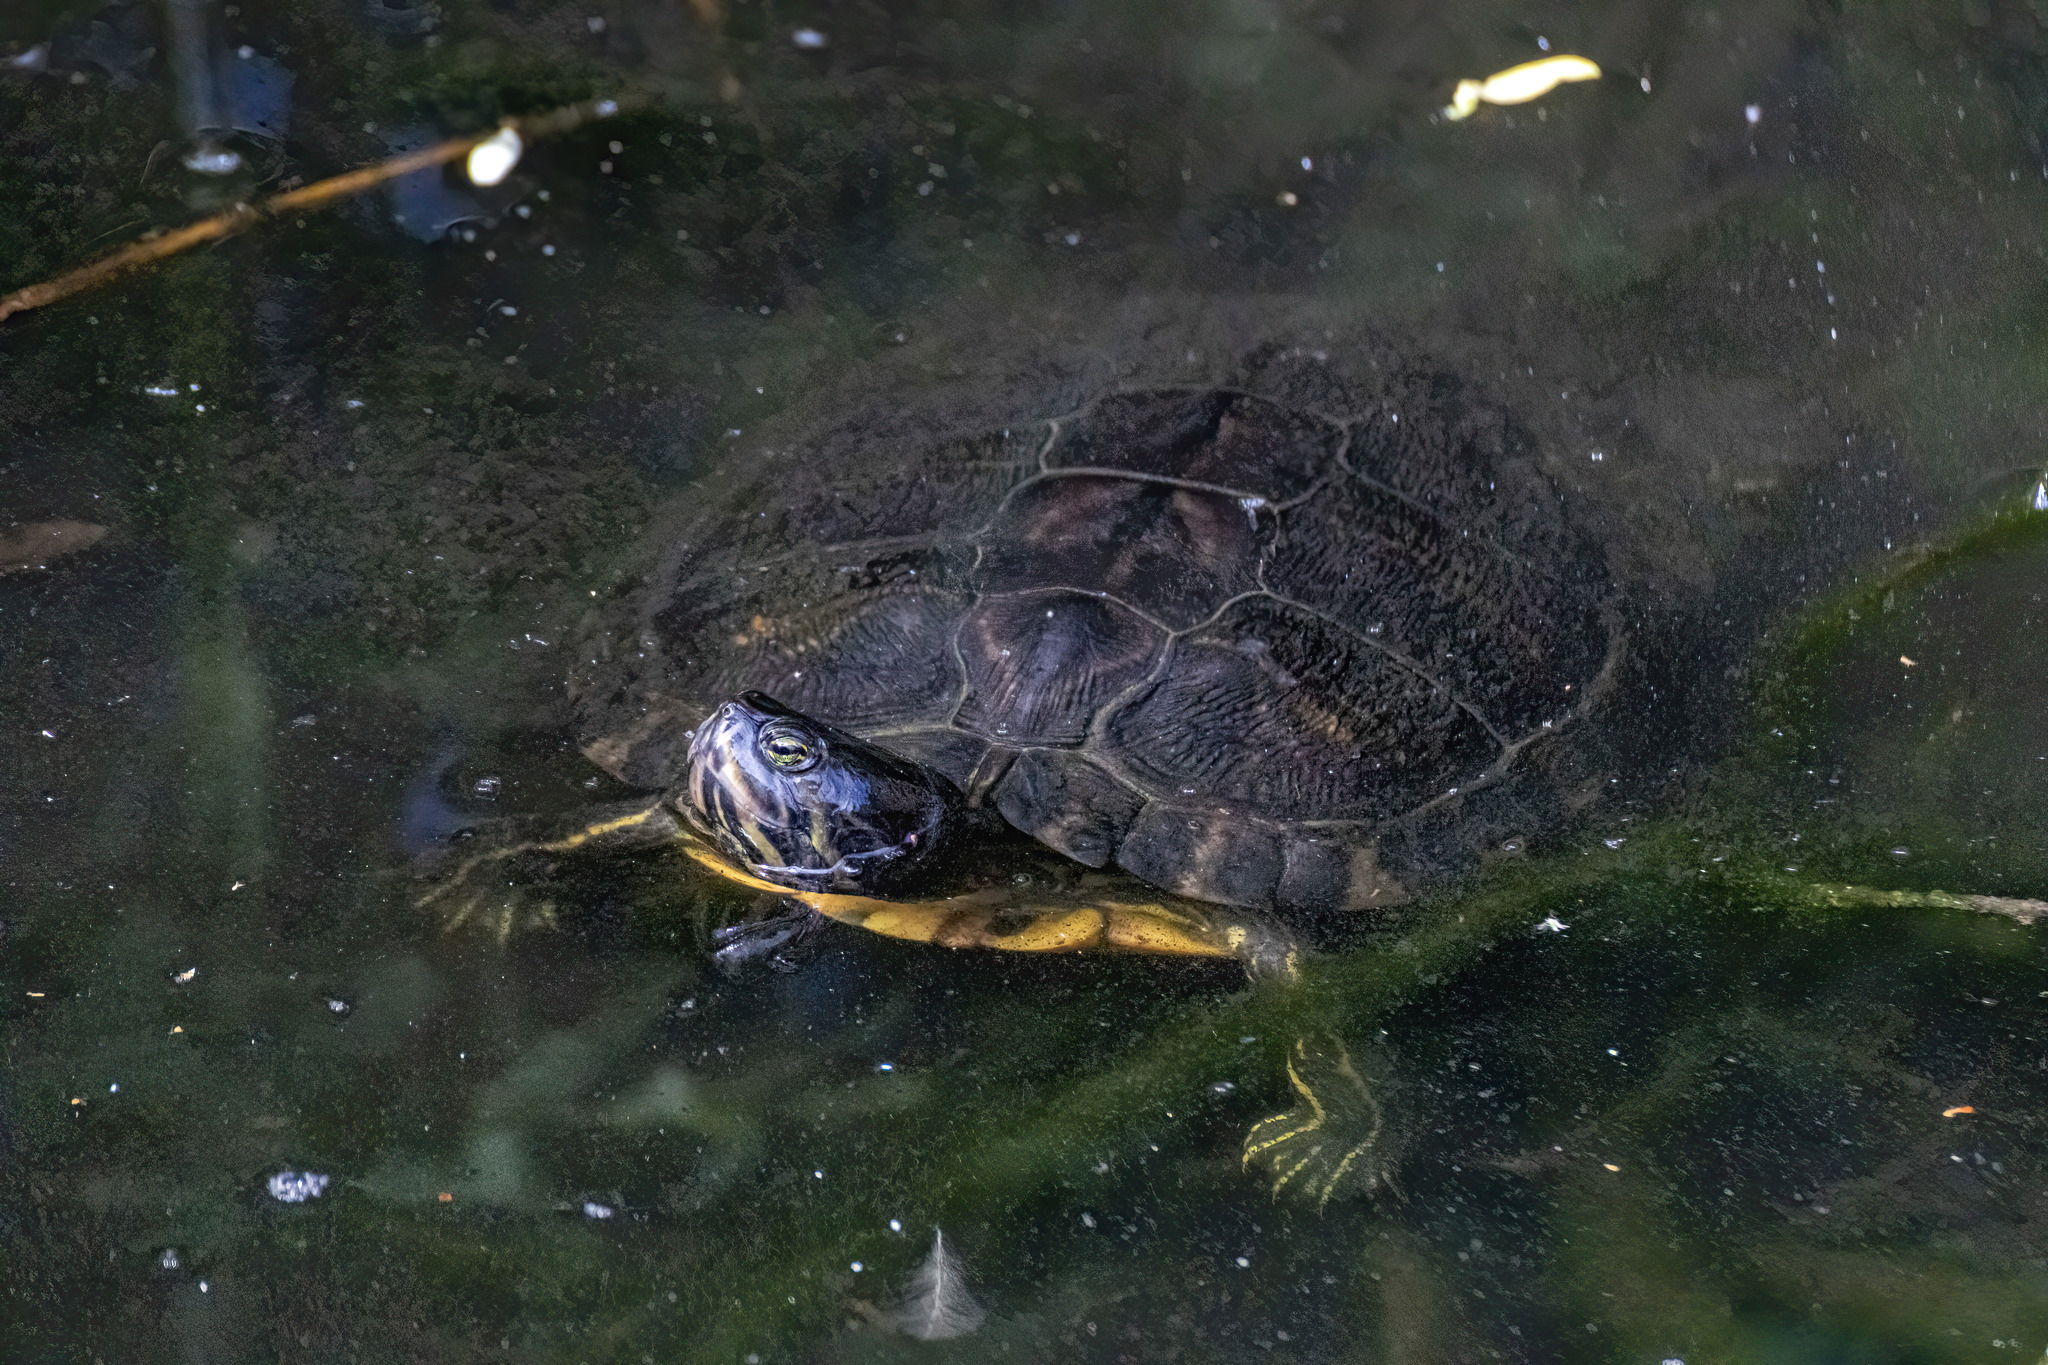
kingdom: Animalia
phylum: Chordata
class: Testudines
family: Emydidae
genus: Trachemys
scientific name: Trachemys scripta
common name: Slider
